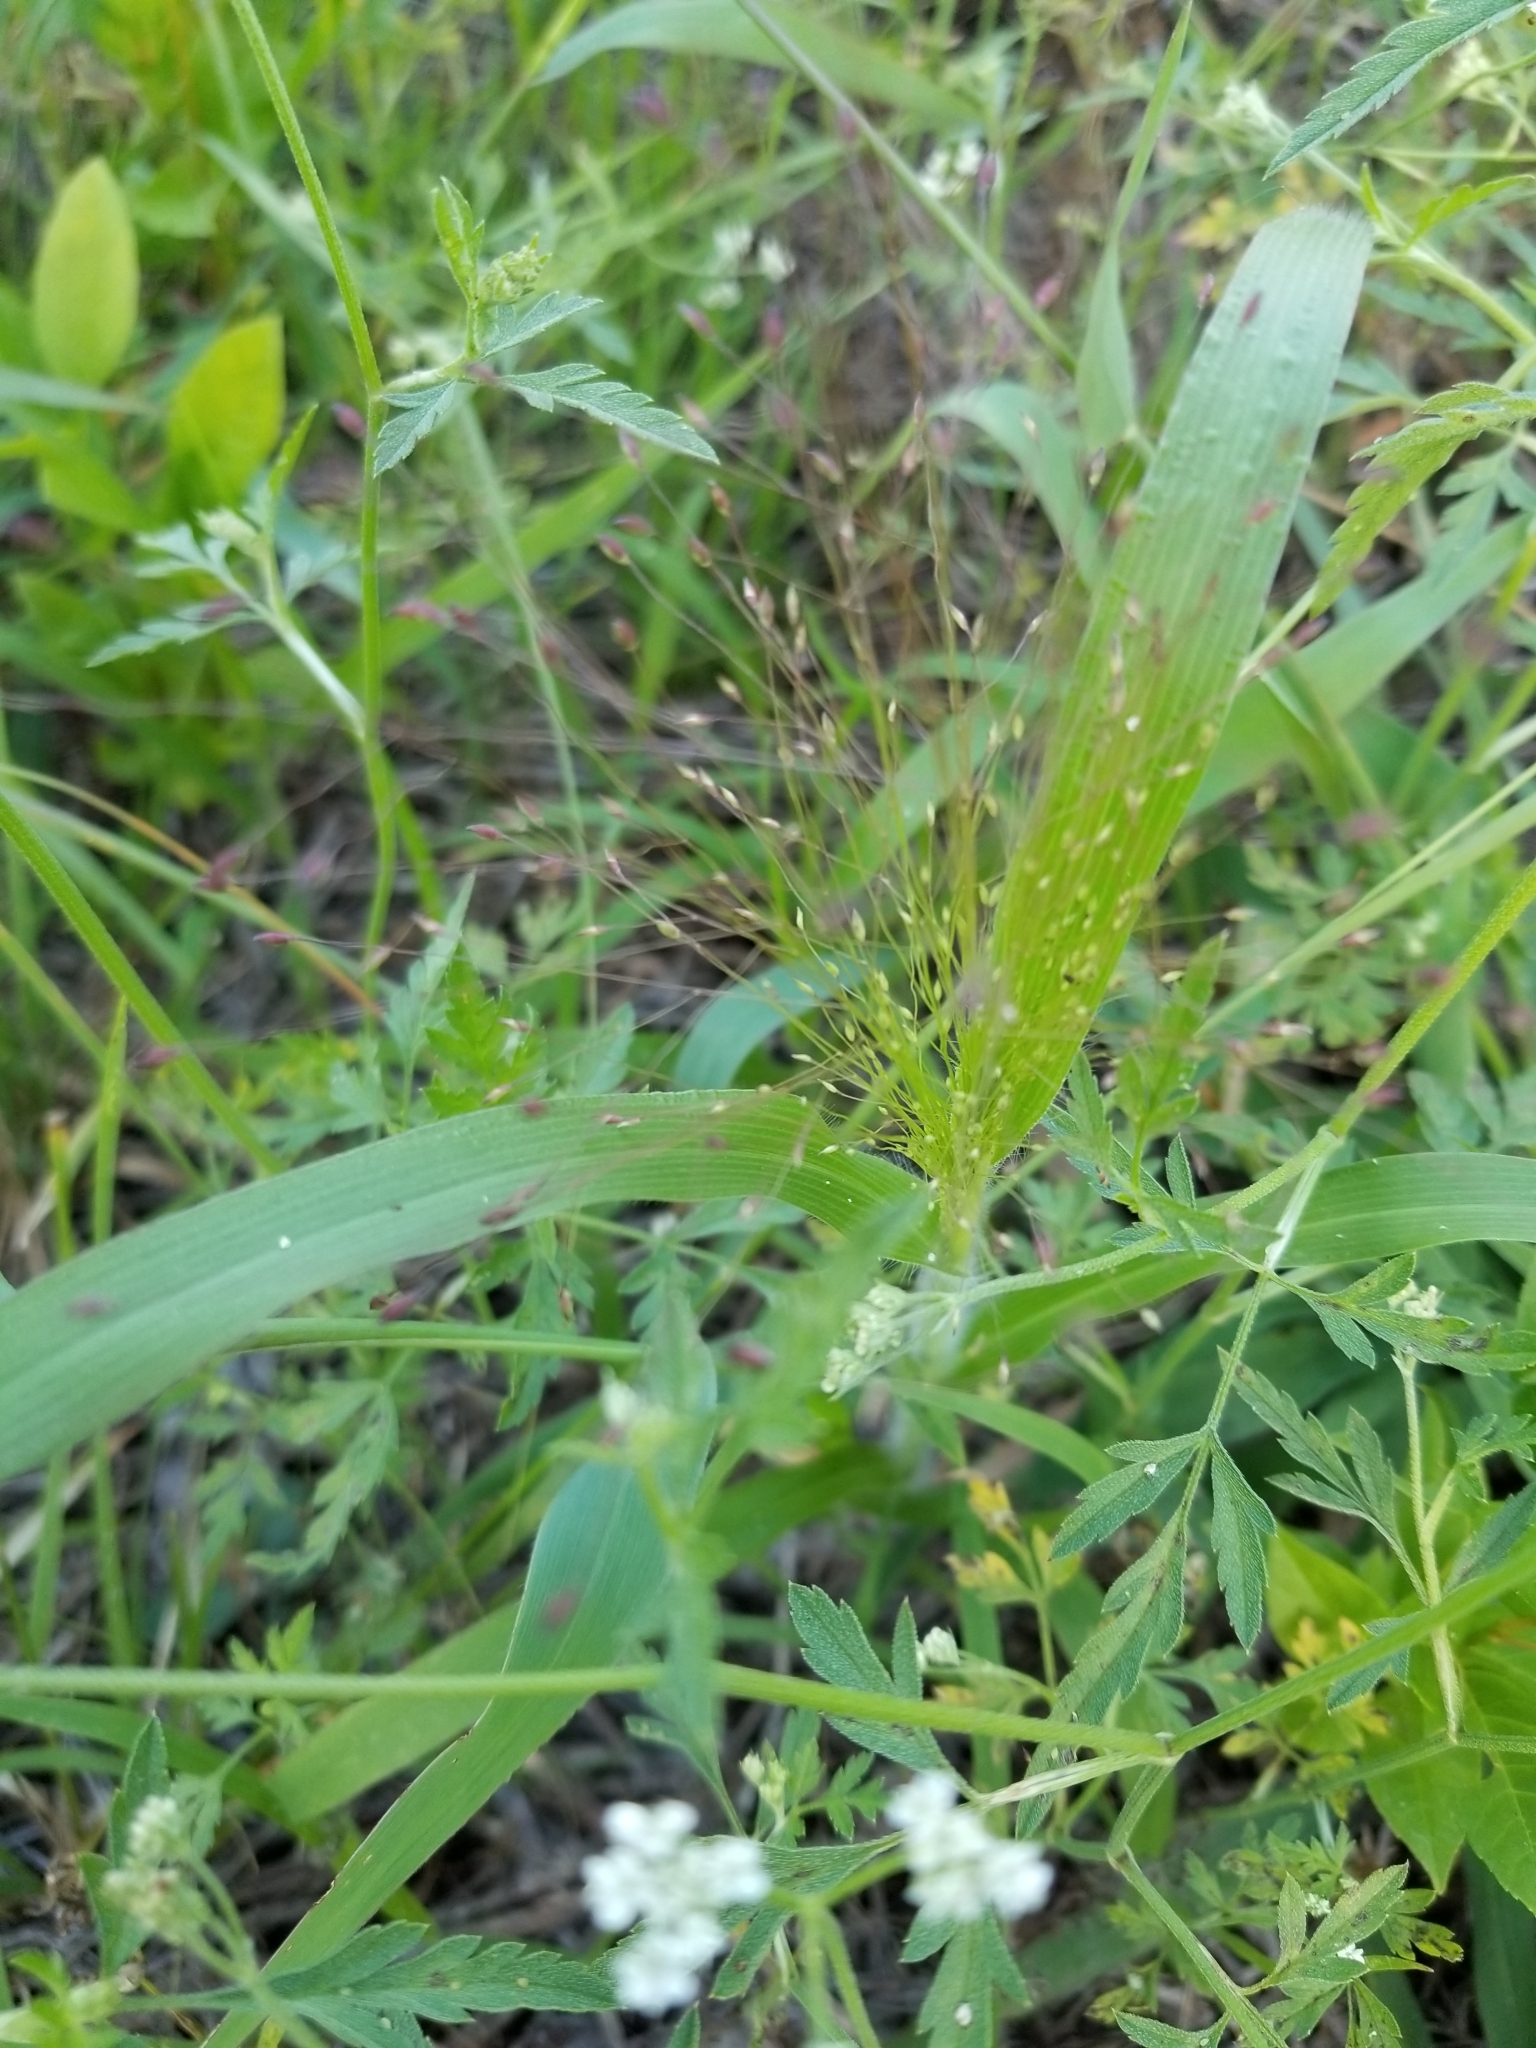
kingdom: Plantae
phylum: Tracheophyta
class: Liliopsida
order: Poales
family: Poaceae
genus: Panicum
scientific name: Panicum capillare
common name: Witch-grass
